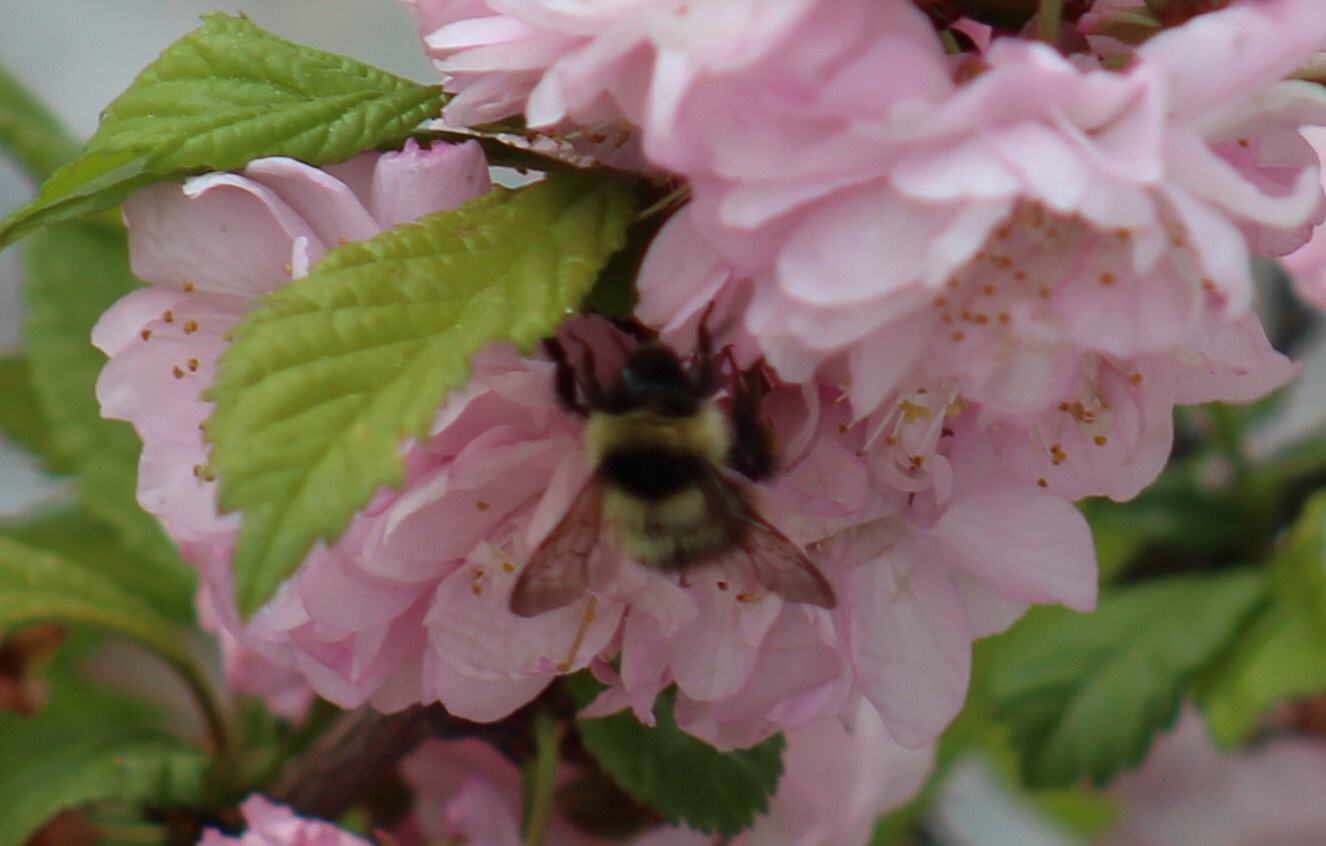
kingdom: Animalia
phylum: Arthropoda
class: Insecta
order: Hymenoptera
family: Apidae
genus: Bombus
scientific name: Bombus frigidus
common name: Frigid bumble bee
